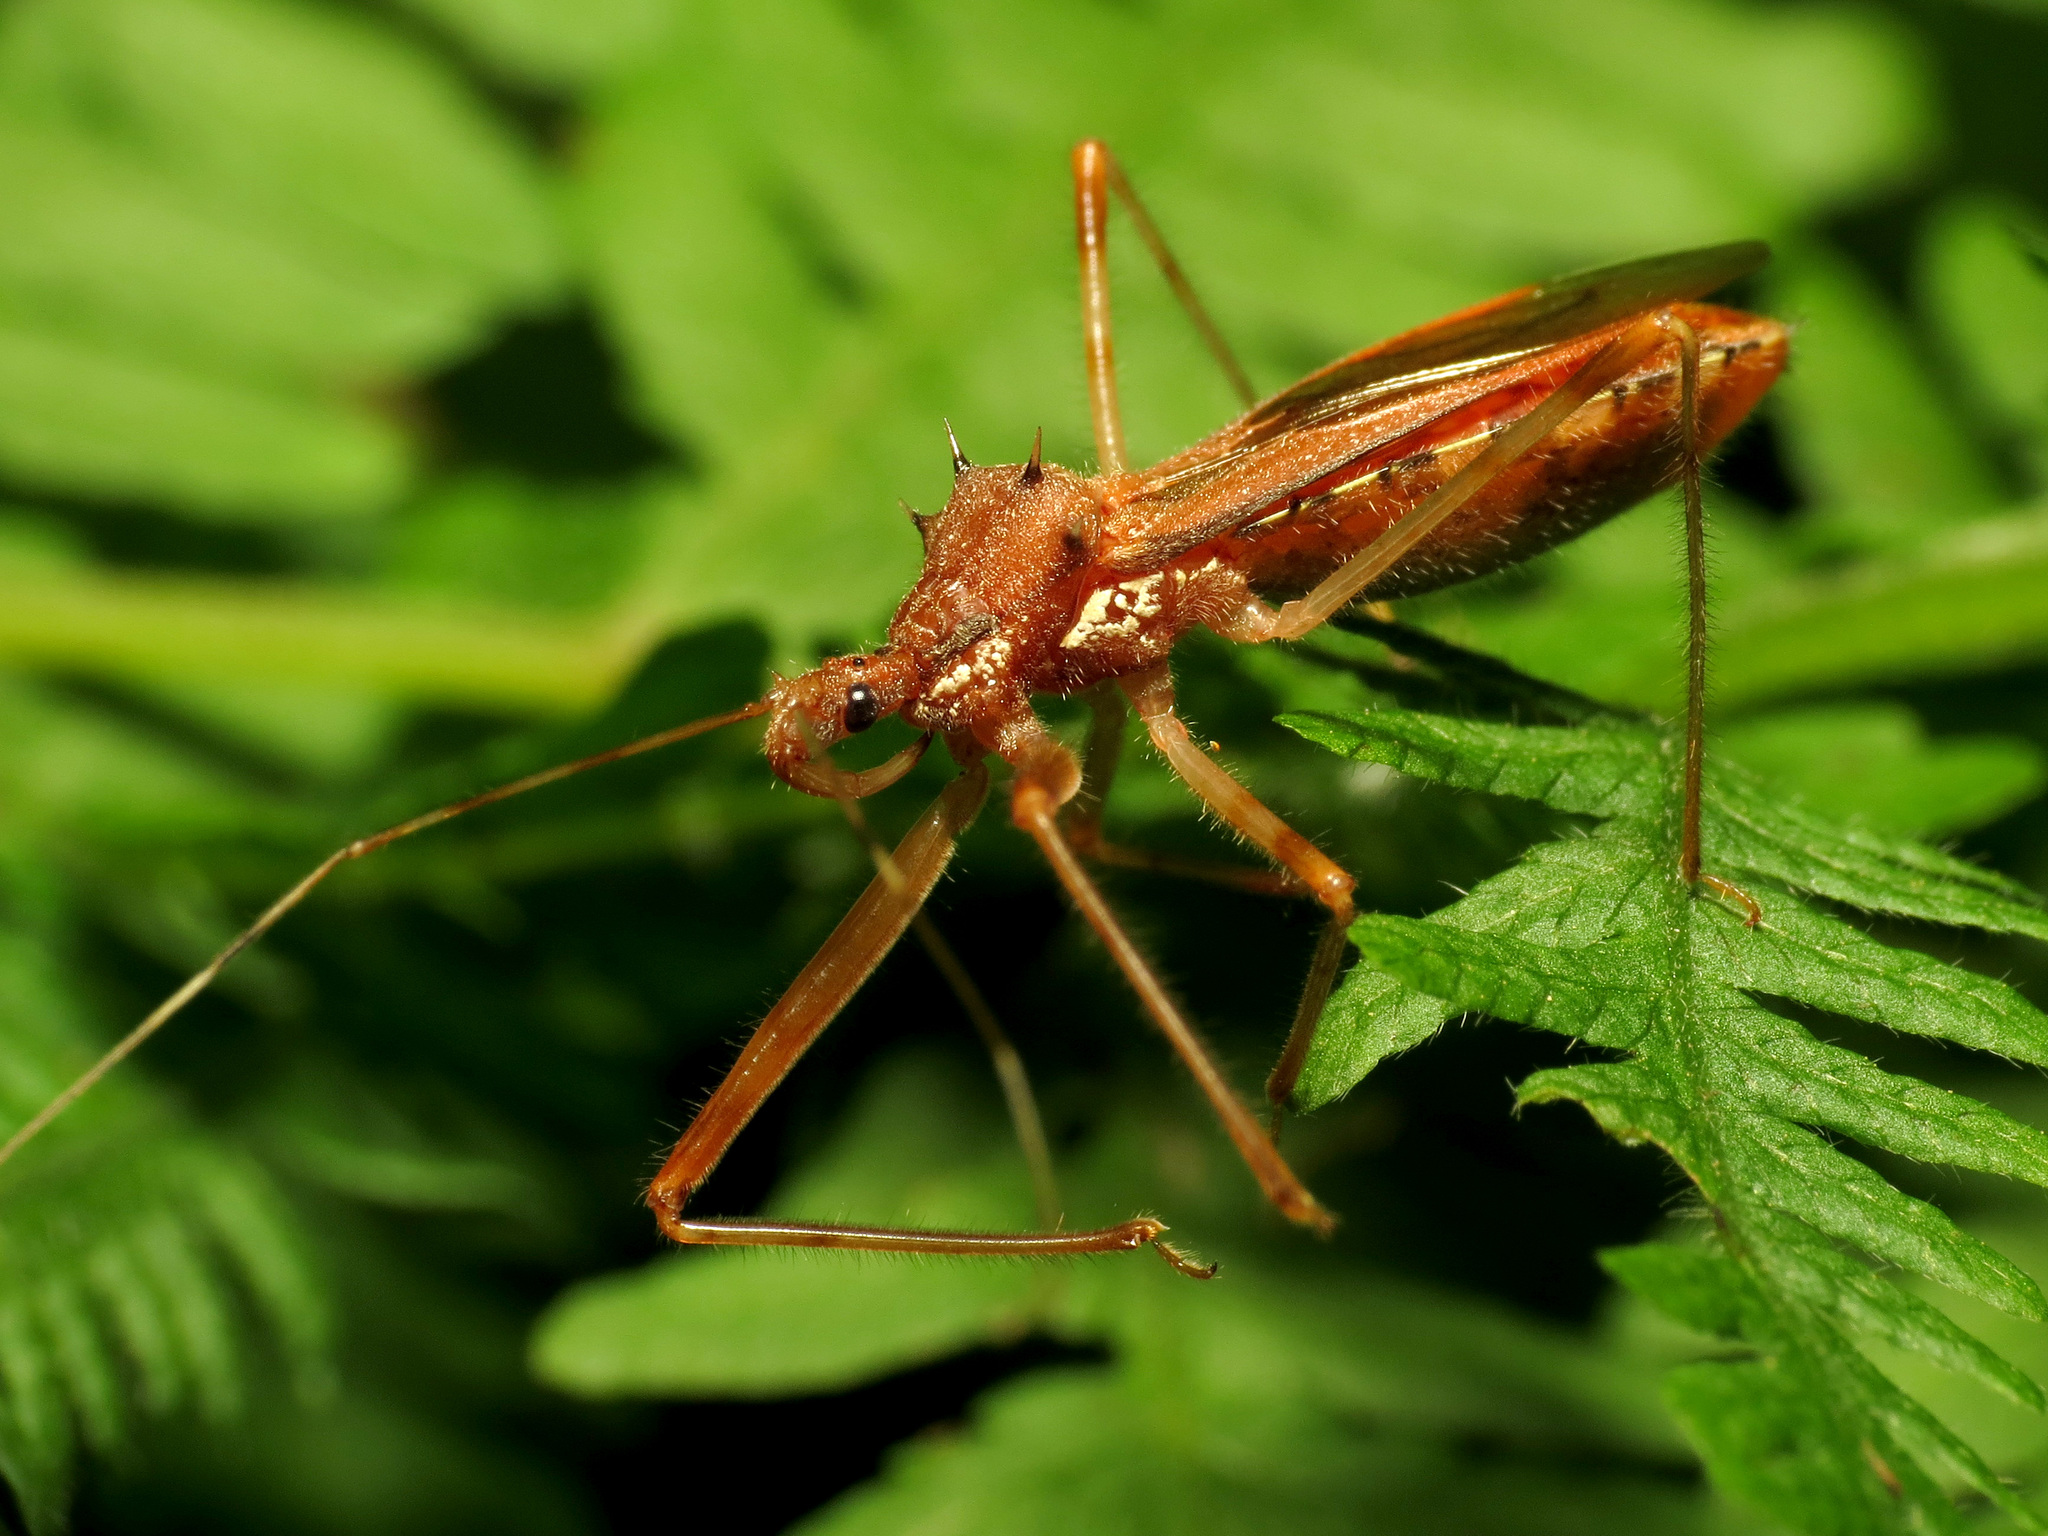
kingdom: Animalia
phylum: Arthropoda
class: Insecta
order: Hemiptera
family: Reduviidae
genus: Rocconota
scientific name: Rocconota annulicornis
